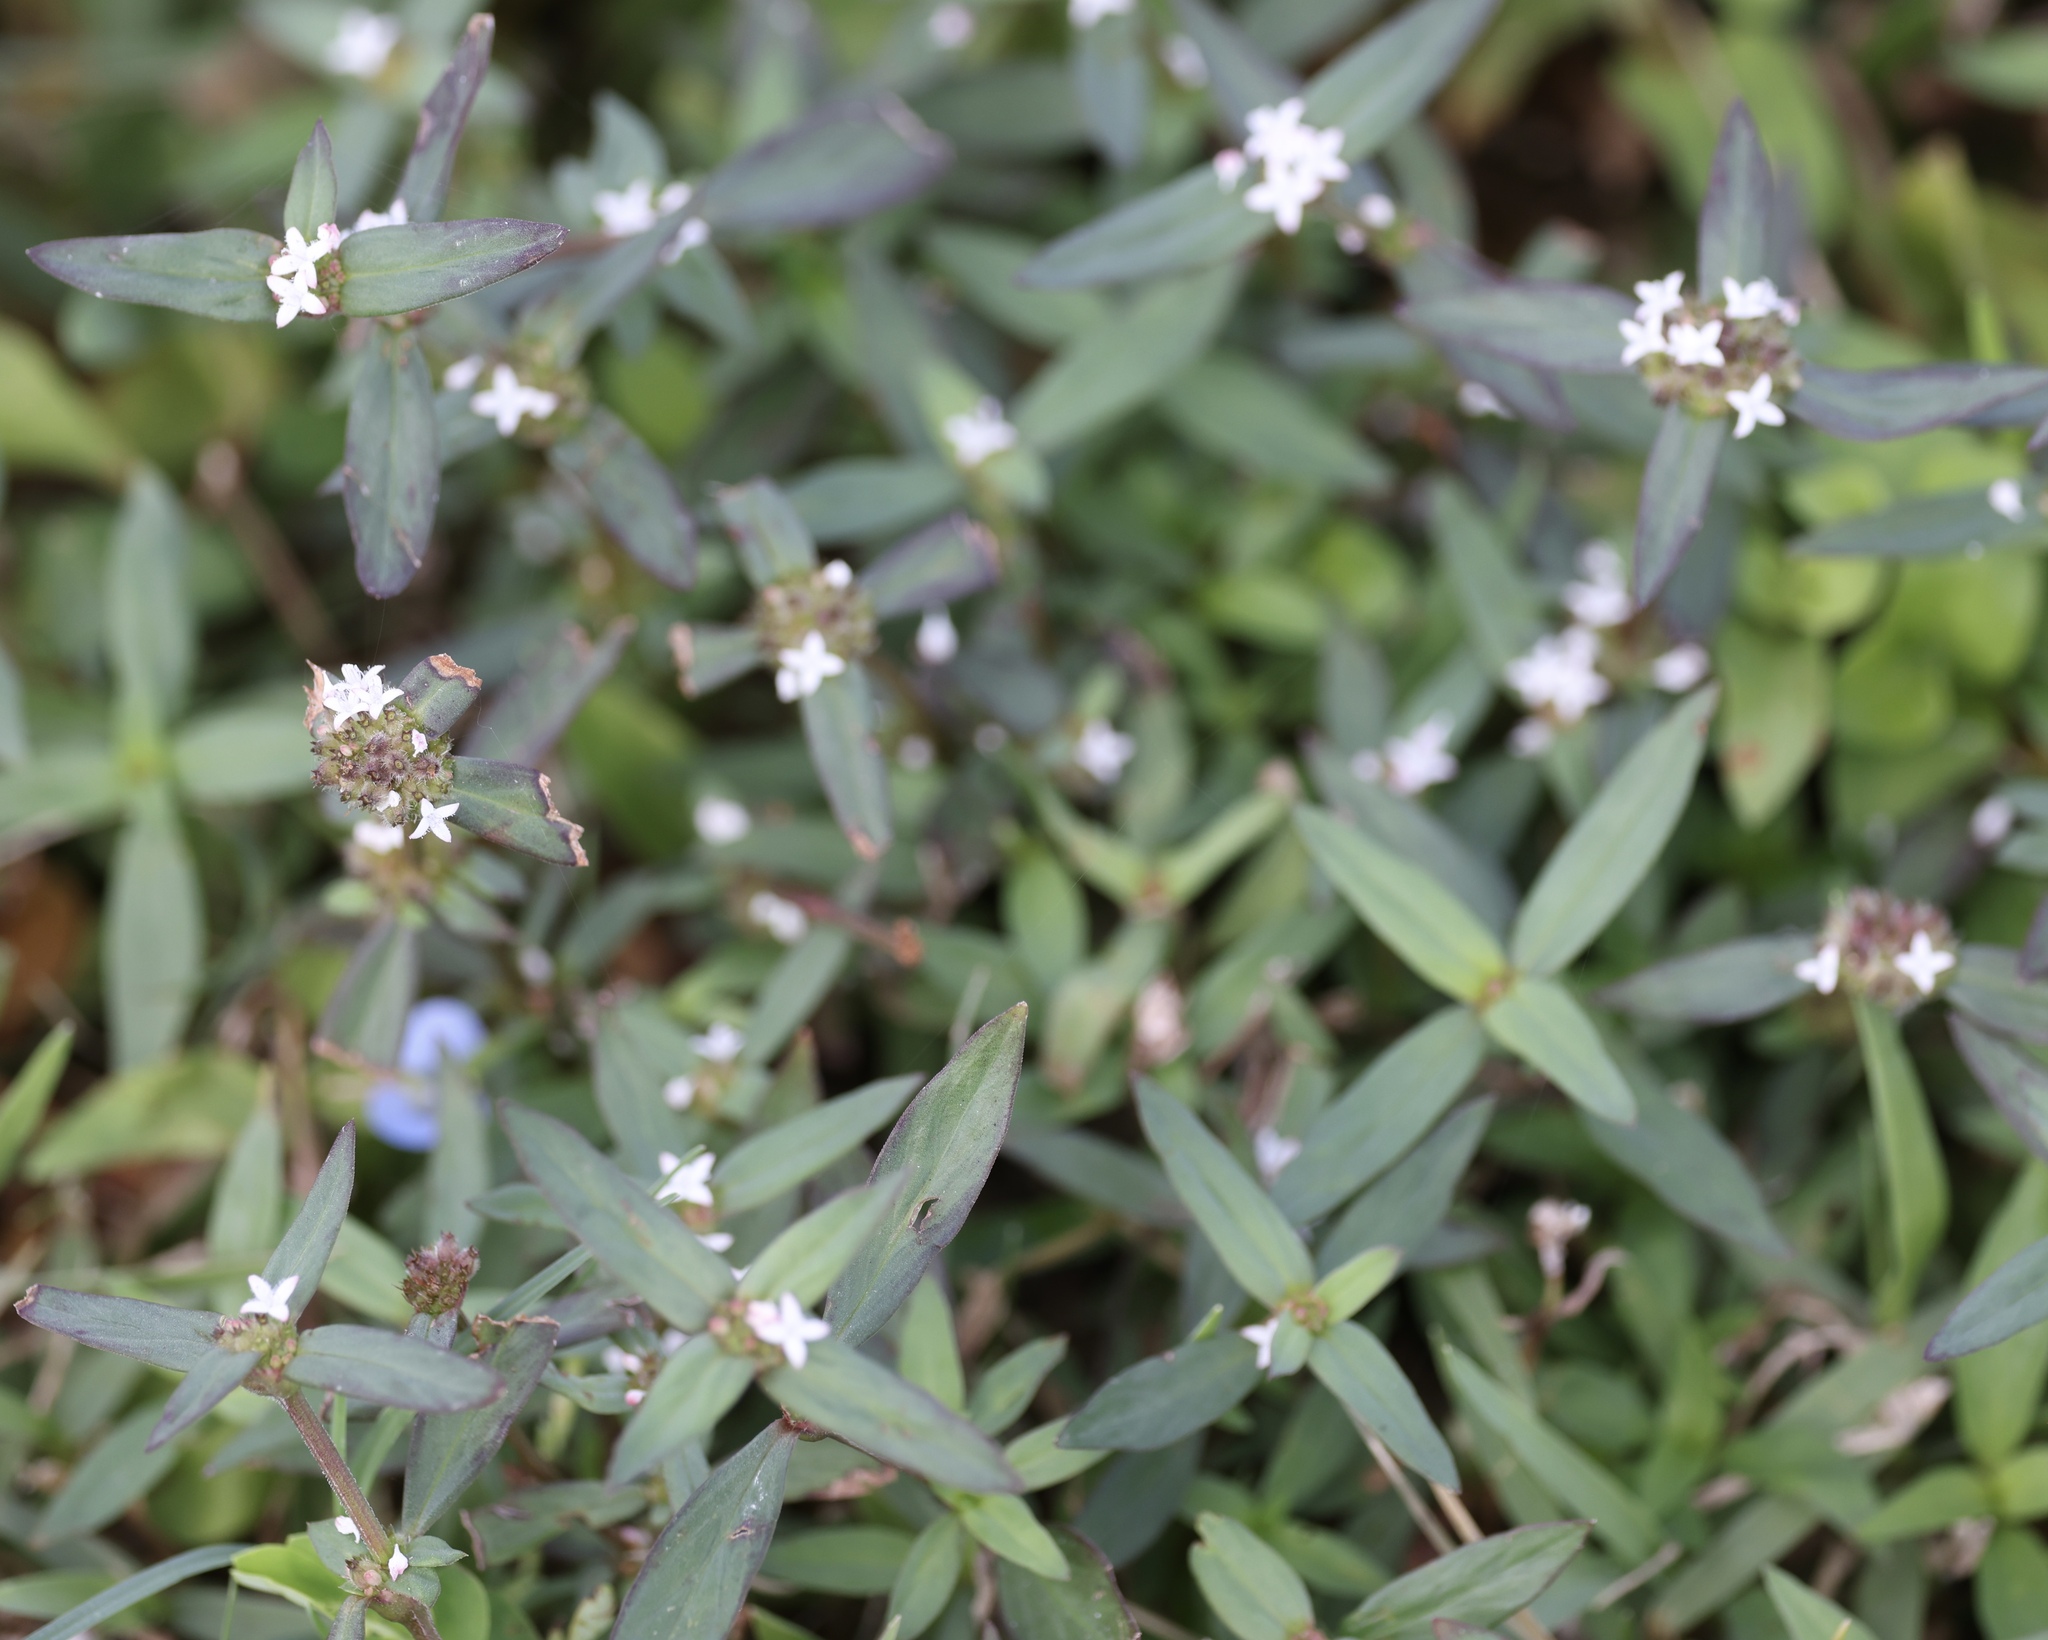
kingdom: Plantae
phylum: Tracheophyta
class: Magnoliopsida
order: Gentianales
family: Rubiaceae
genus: Spermacoce
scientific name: Spermacoce remota
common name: Woodland false buttonweed
